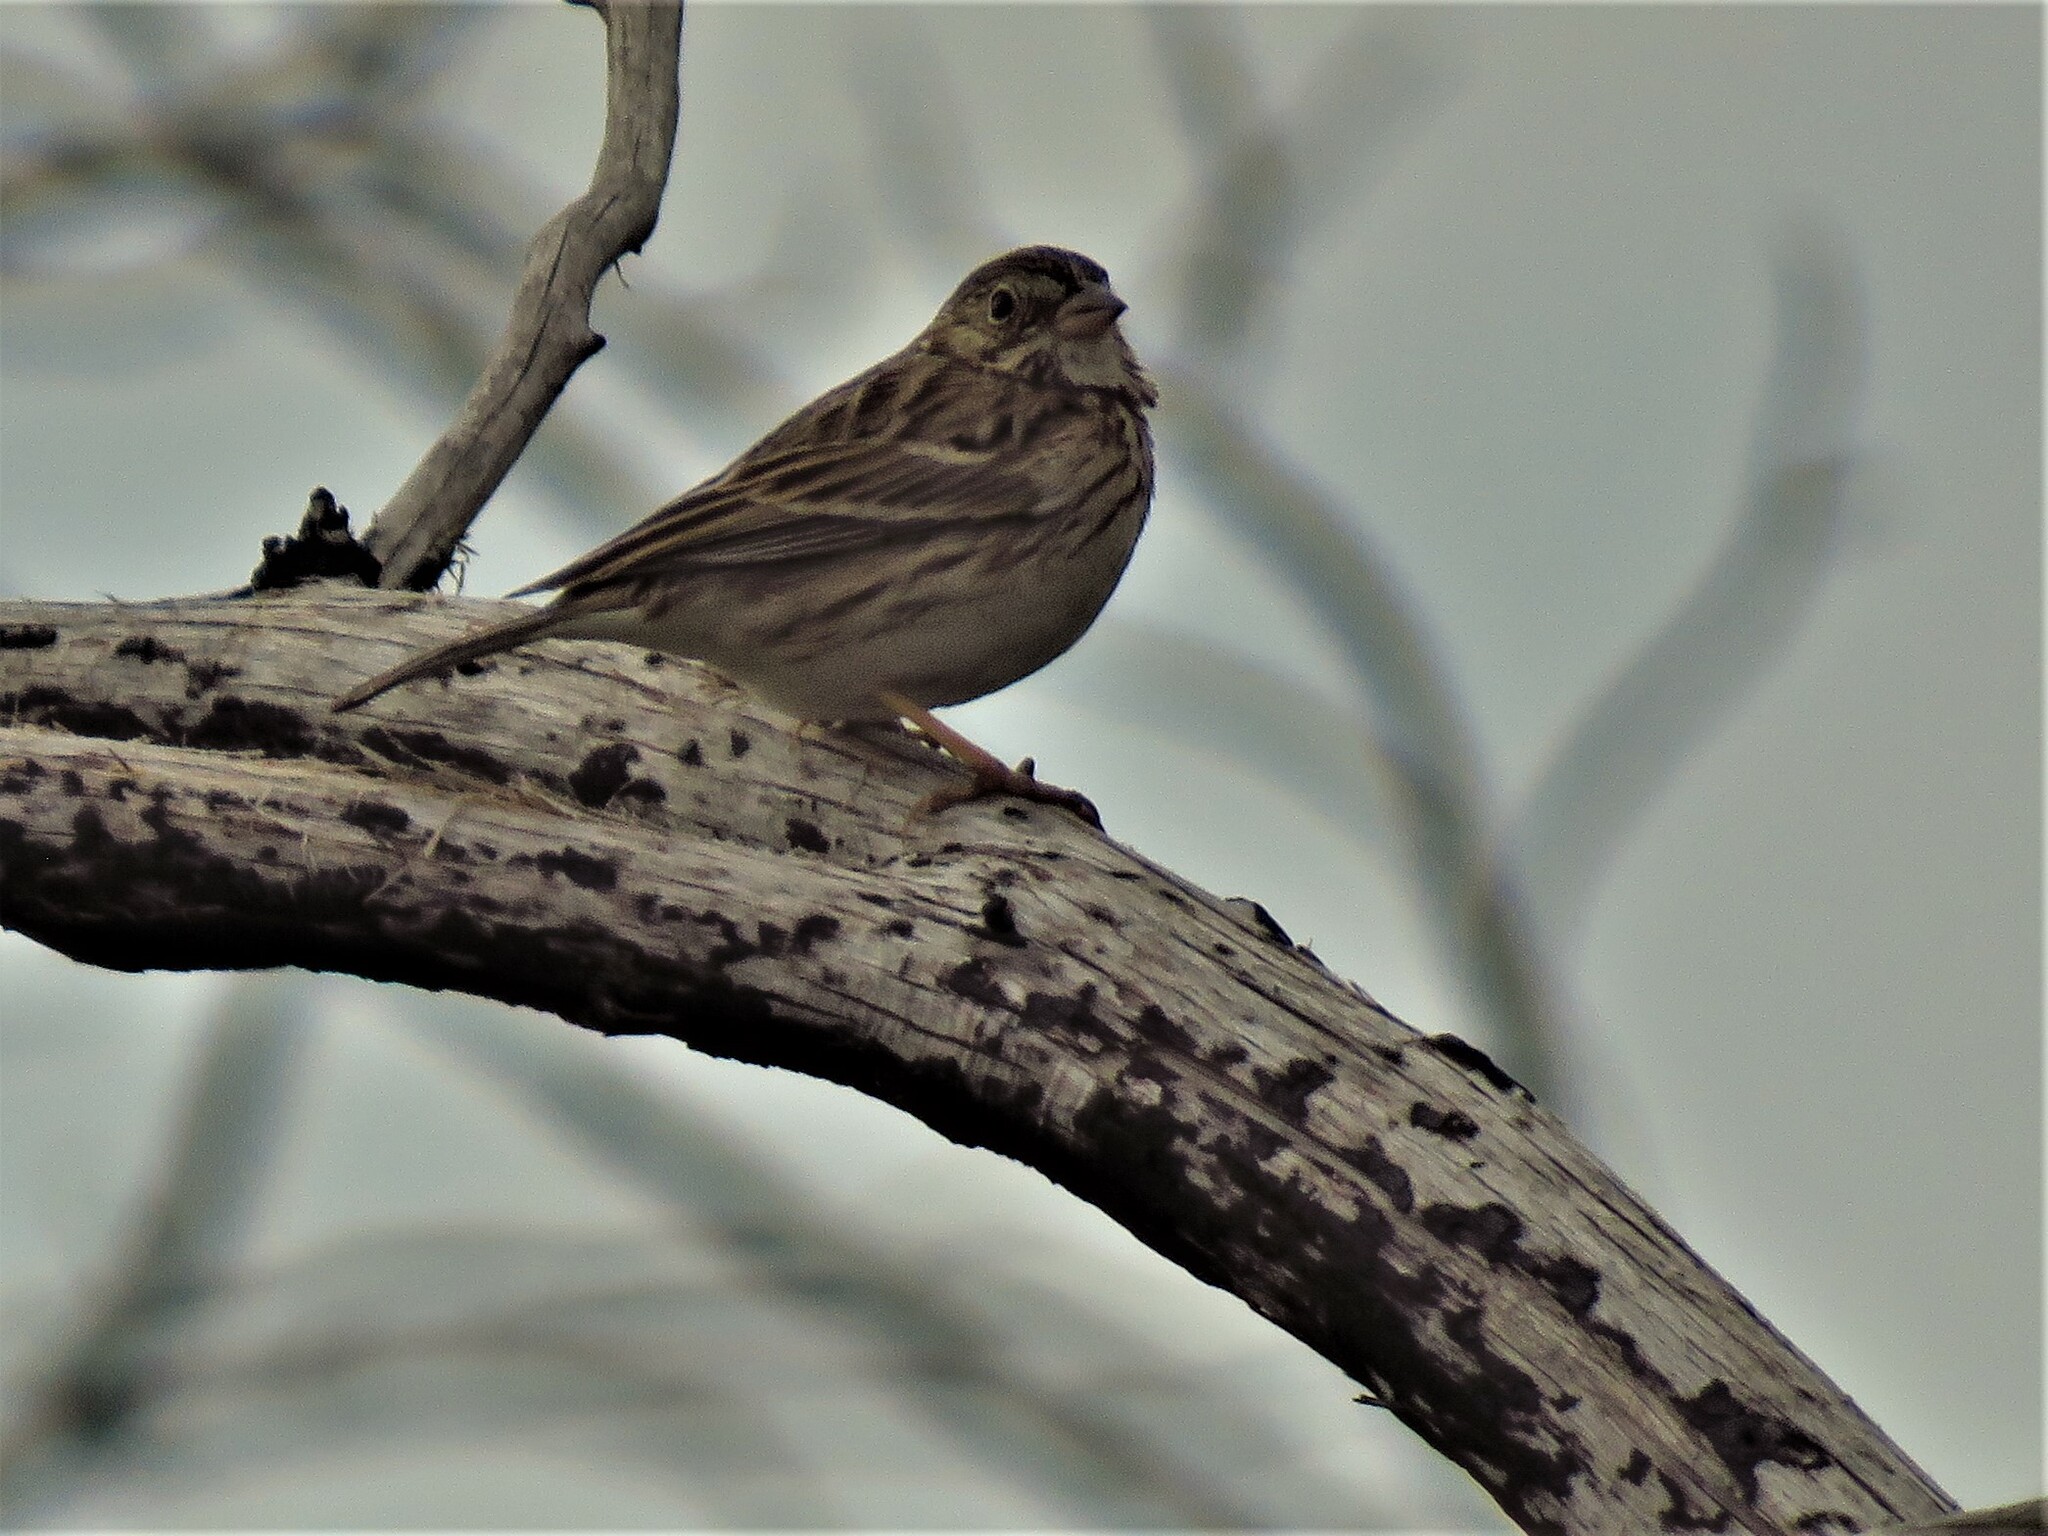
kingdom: Animalia
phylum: Chordata
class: Aves
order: Passeriformes
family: Passerellidae
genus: Pooecetes
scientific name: Pooecetes gramineus
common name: Vesper sparrow
